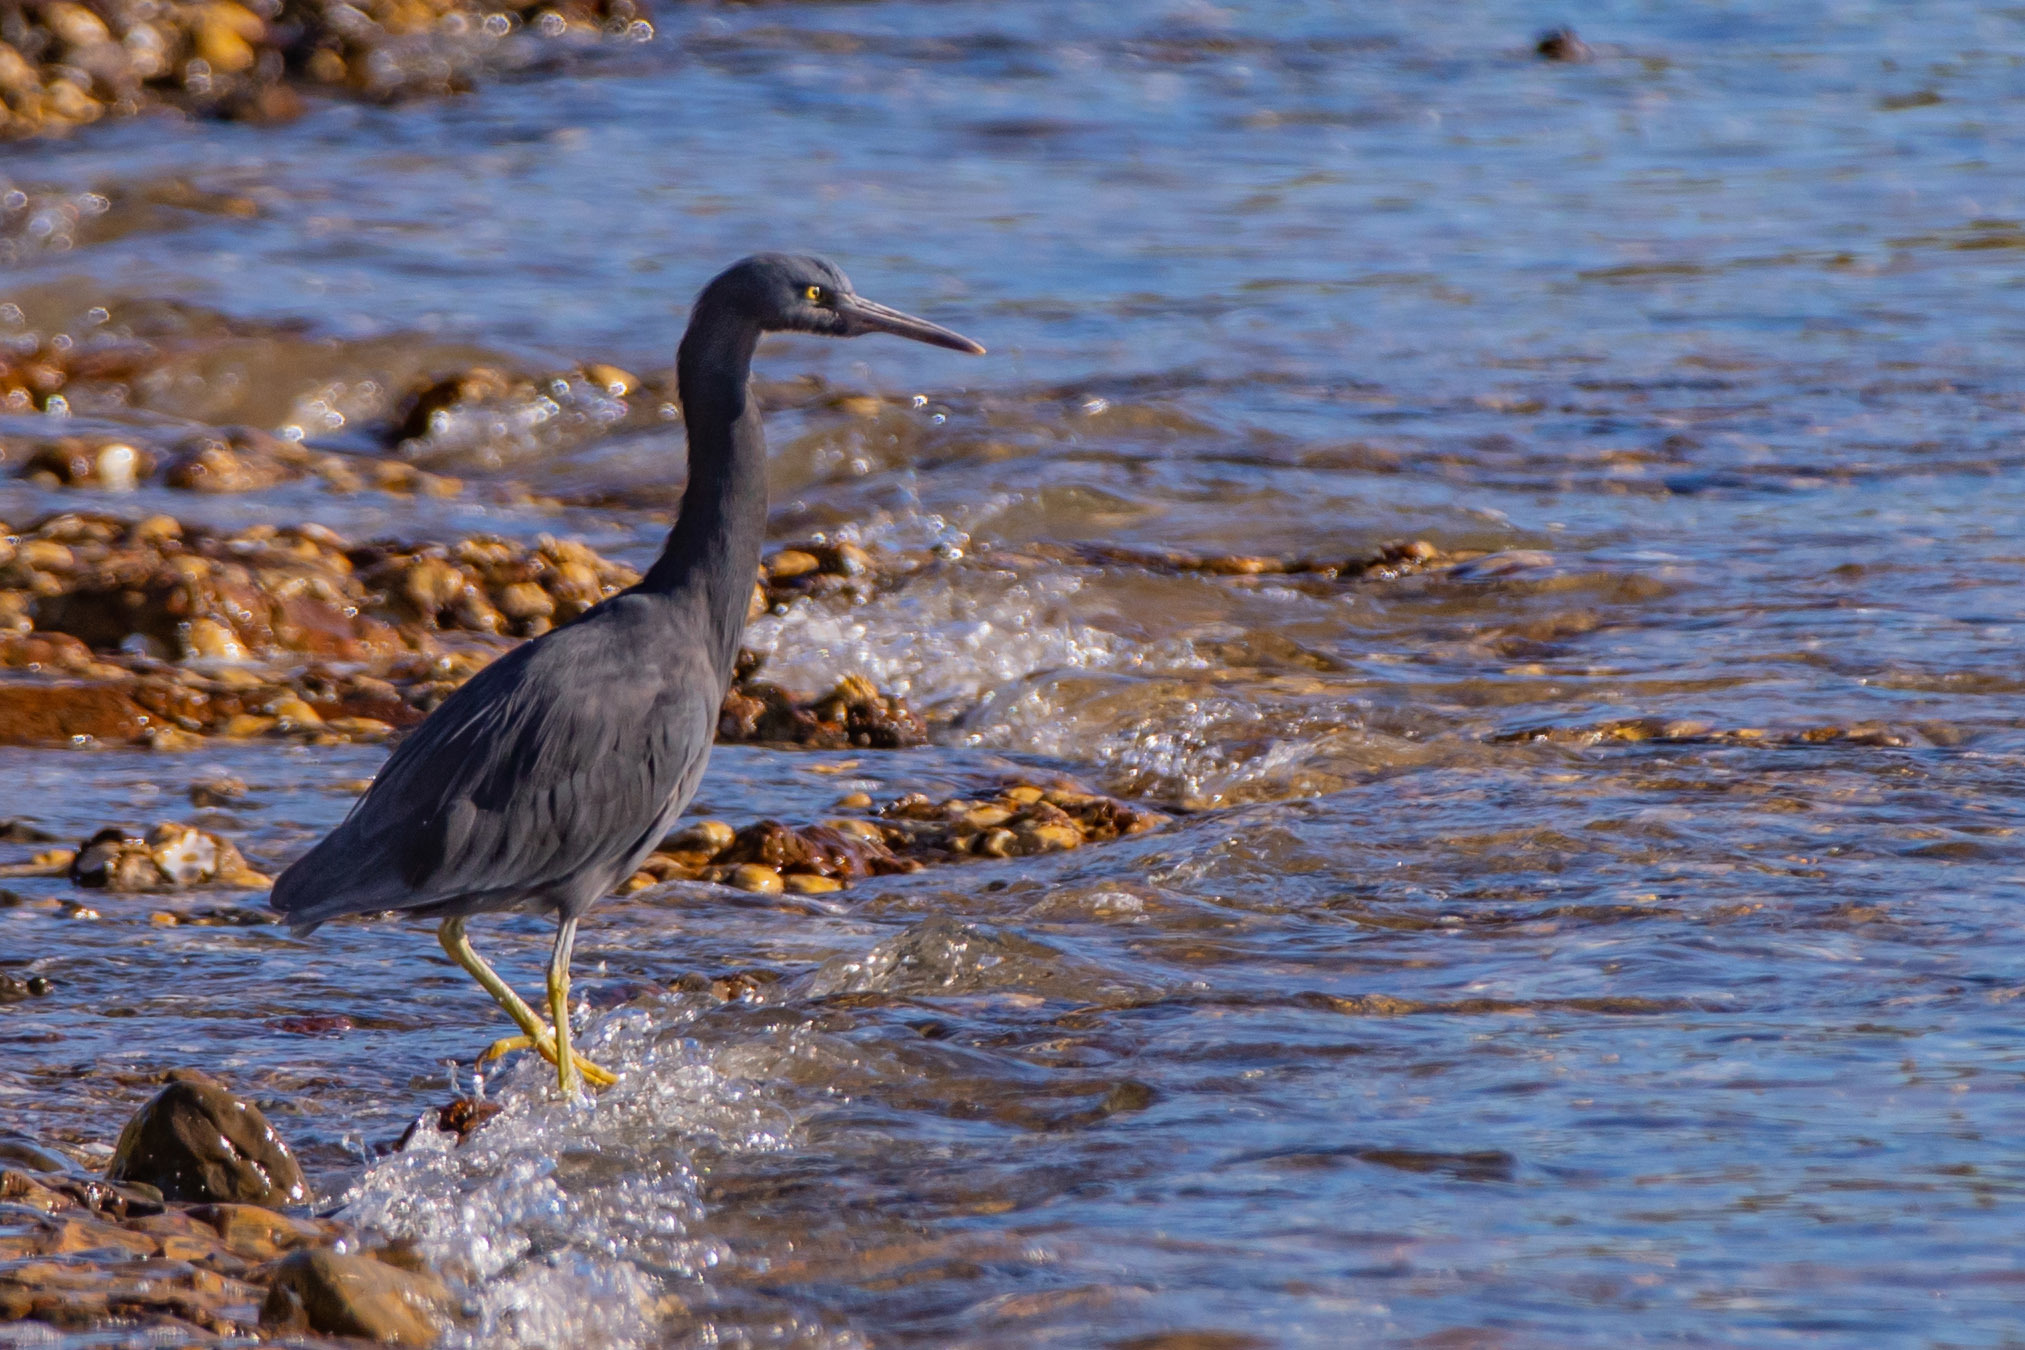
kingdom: Animalia
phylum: Chordata
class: Aves
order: Pelecaniformes
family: Ardeidae
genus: Egretta
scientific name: Egretta sacra
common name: Pacific reef heron
